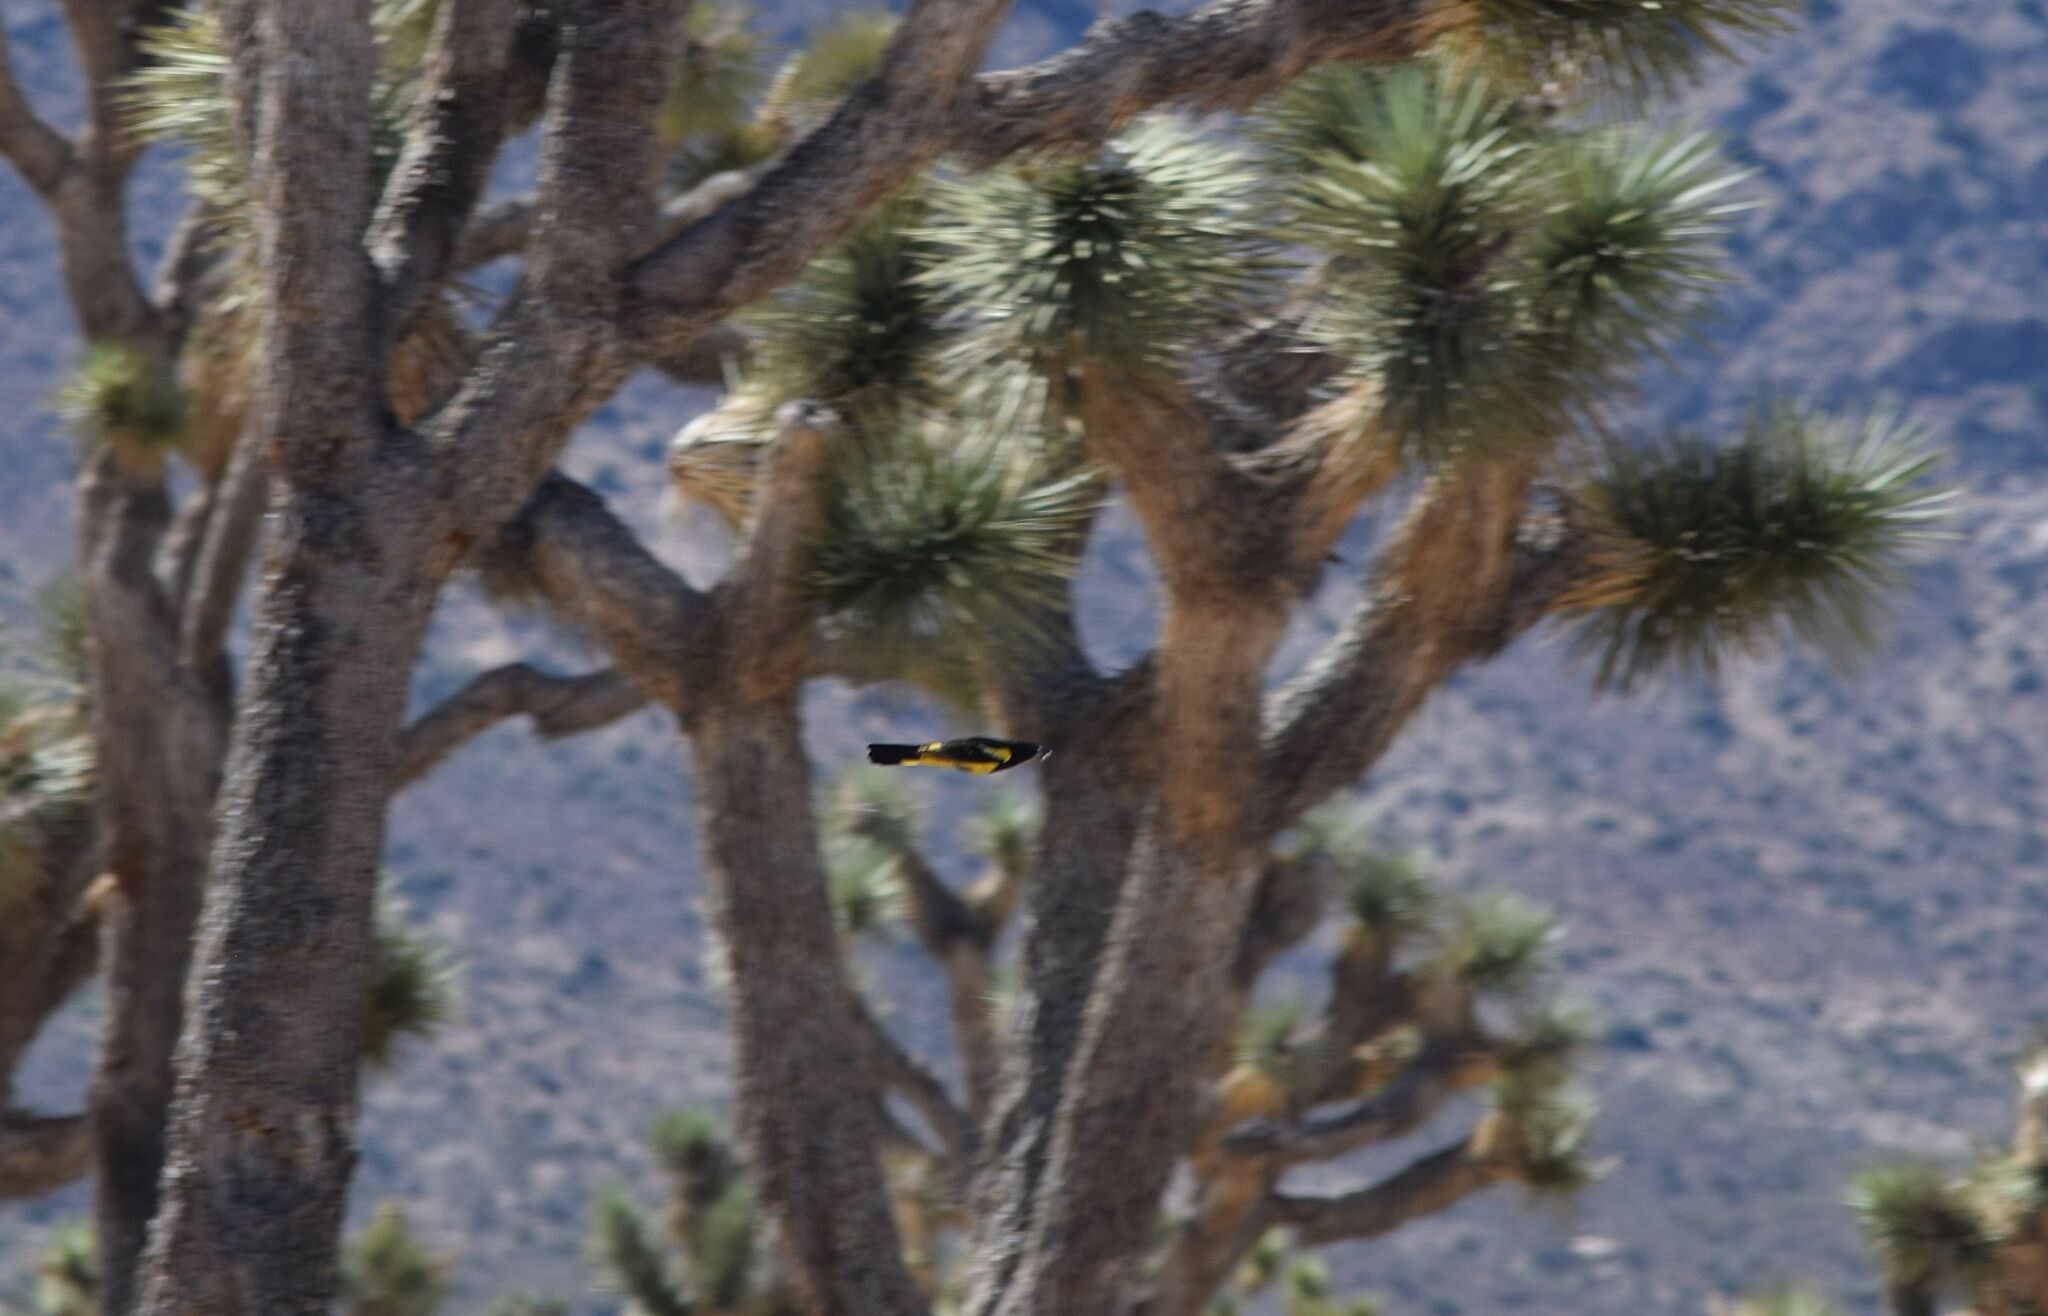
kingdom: Animalia
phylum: Chordata
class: Aves
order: Passeriformes
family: Icteridae
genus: Icterus
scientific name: Icterus parisorum
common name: Scott's oriole
